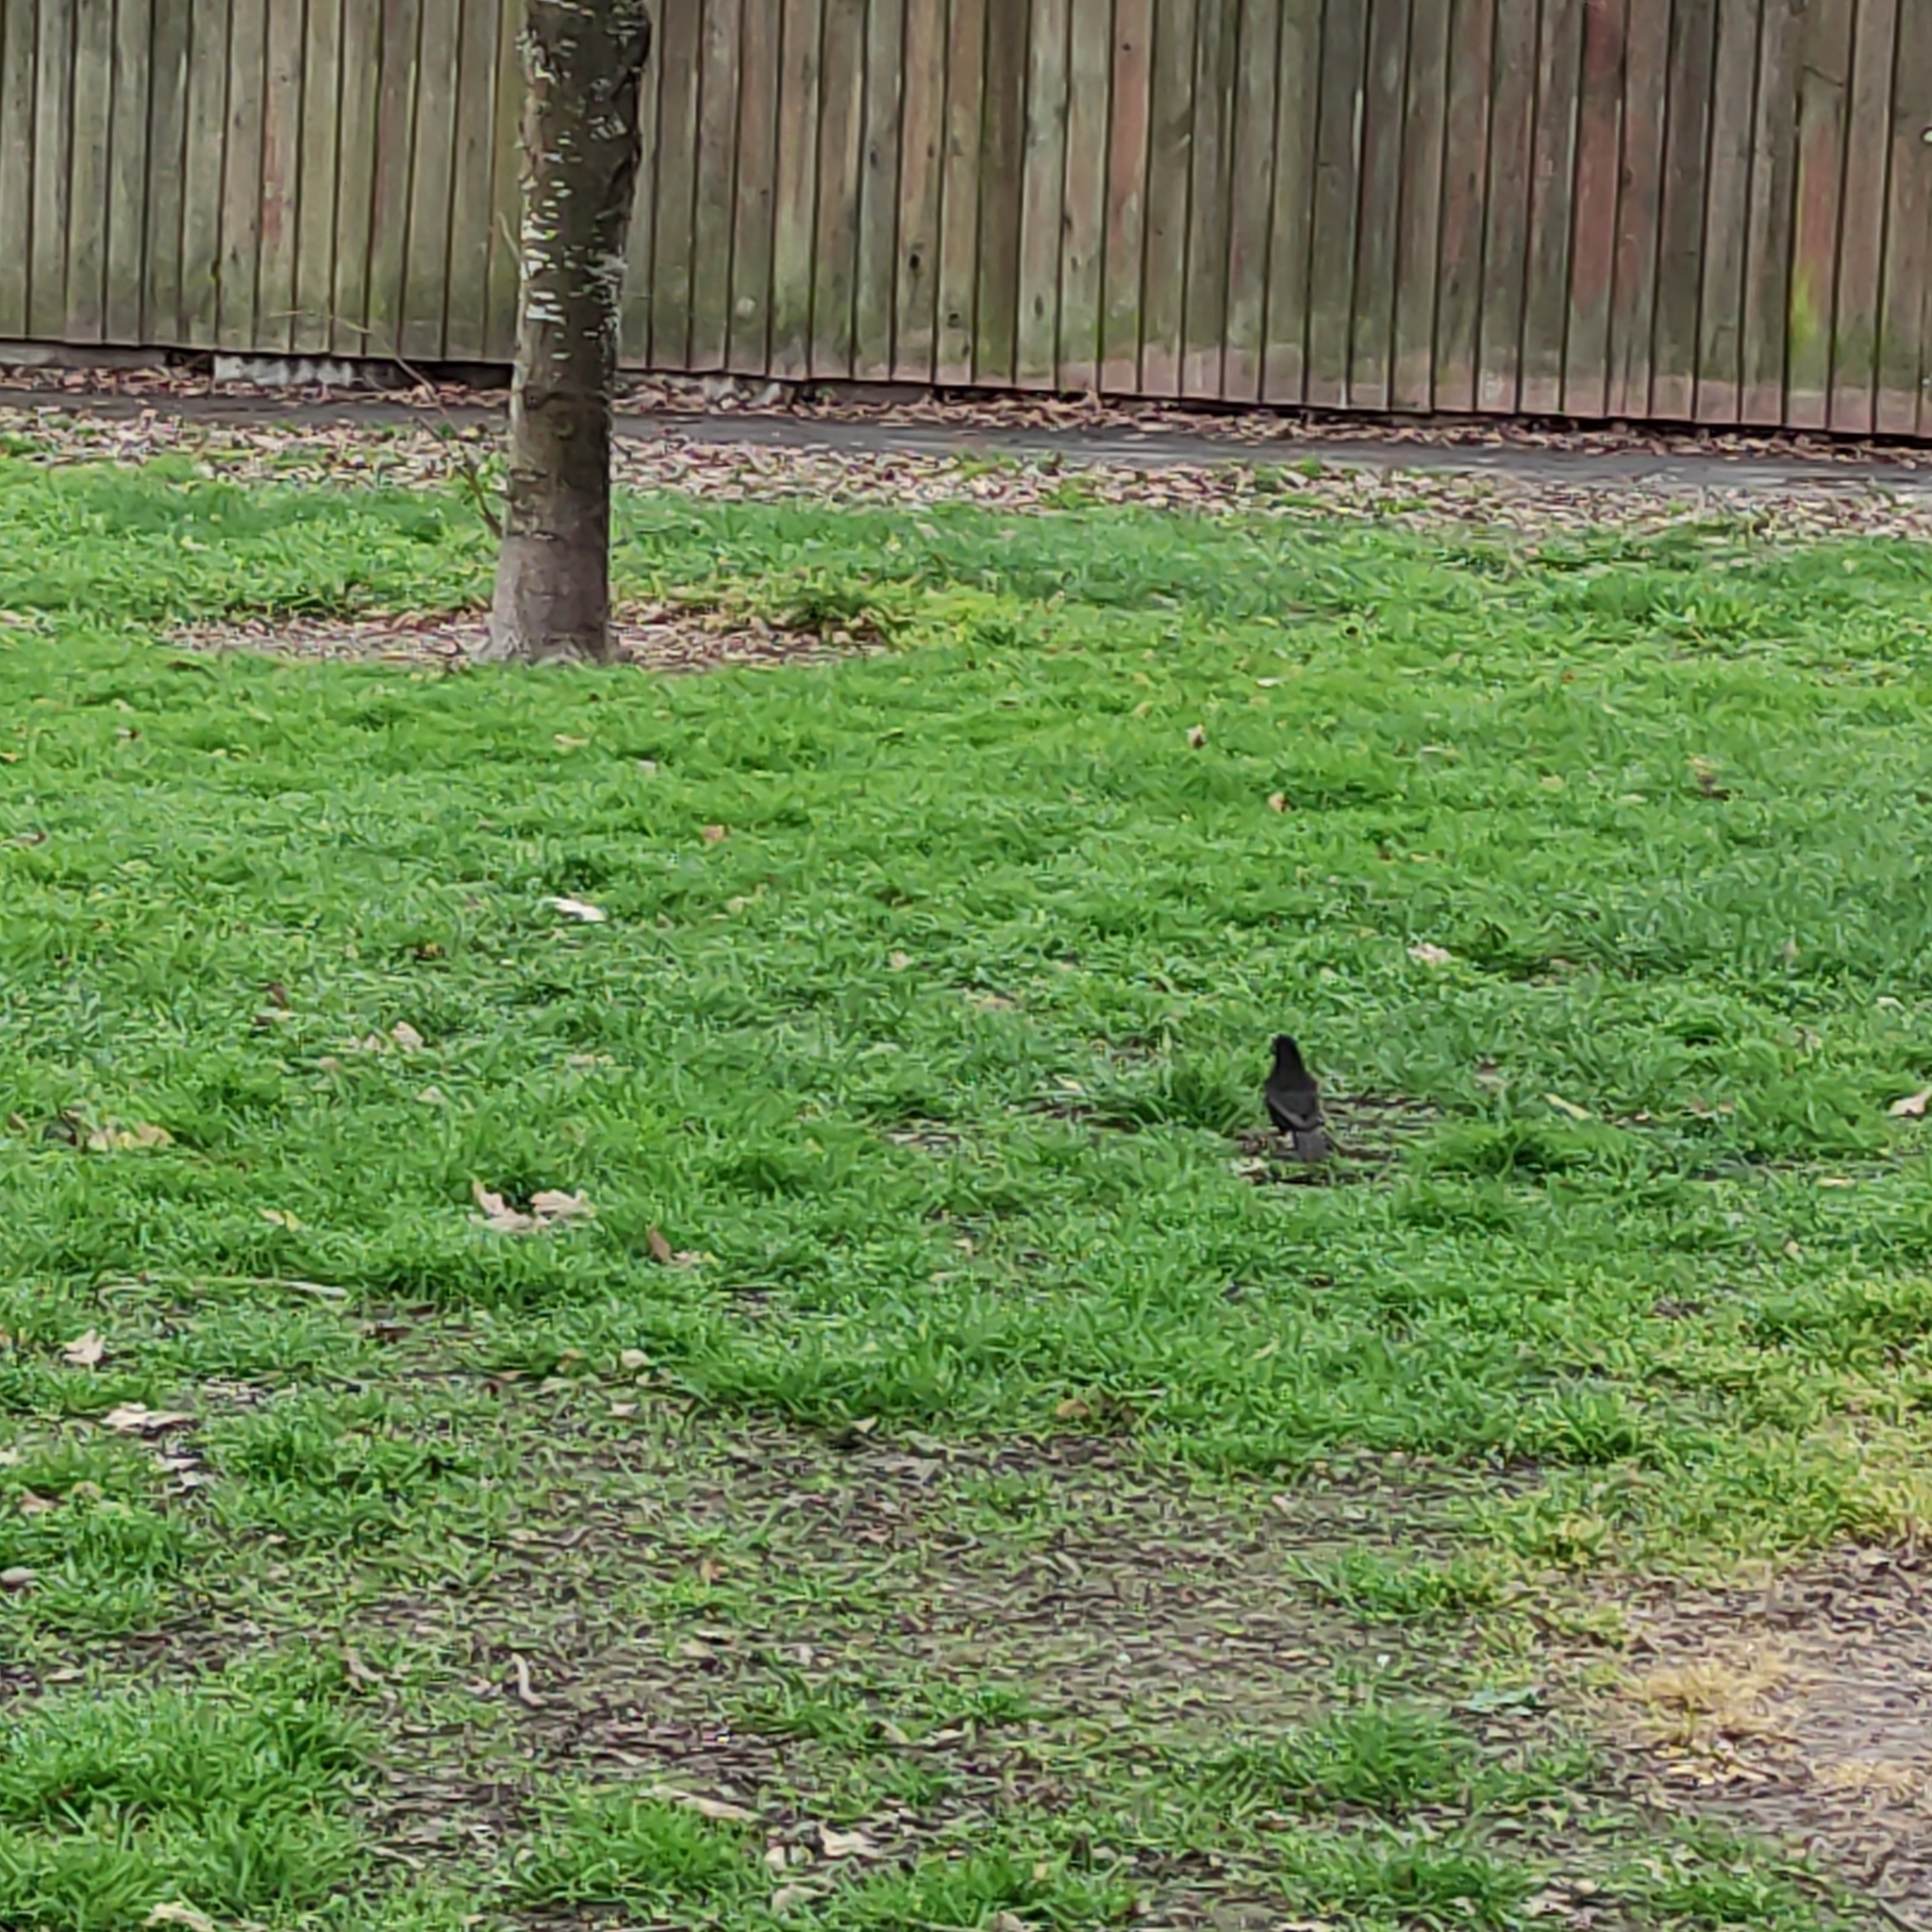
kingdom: Animalia
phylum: Chordata
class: Aves
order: Passeriformes
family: Turdidae
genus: Turdus
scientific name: Turdus merula
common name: Common blackbird
